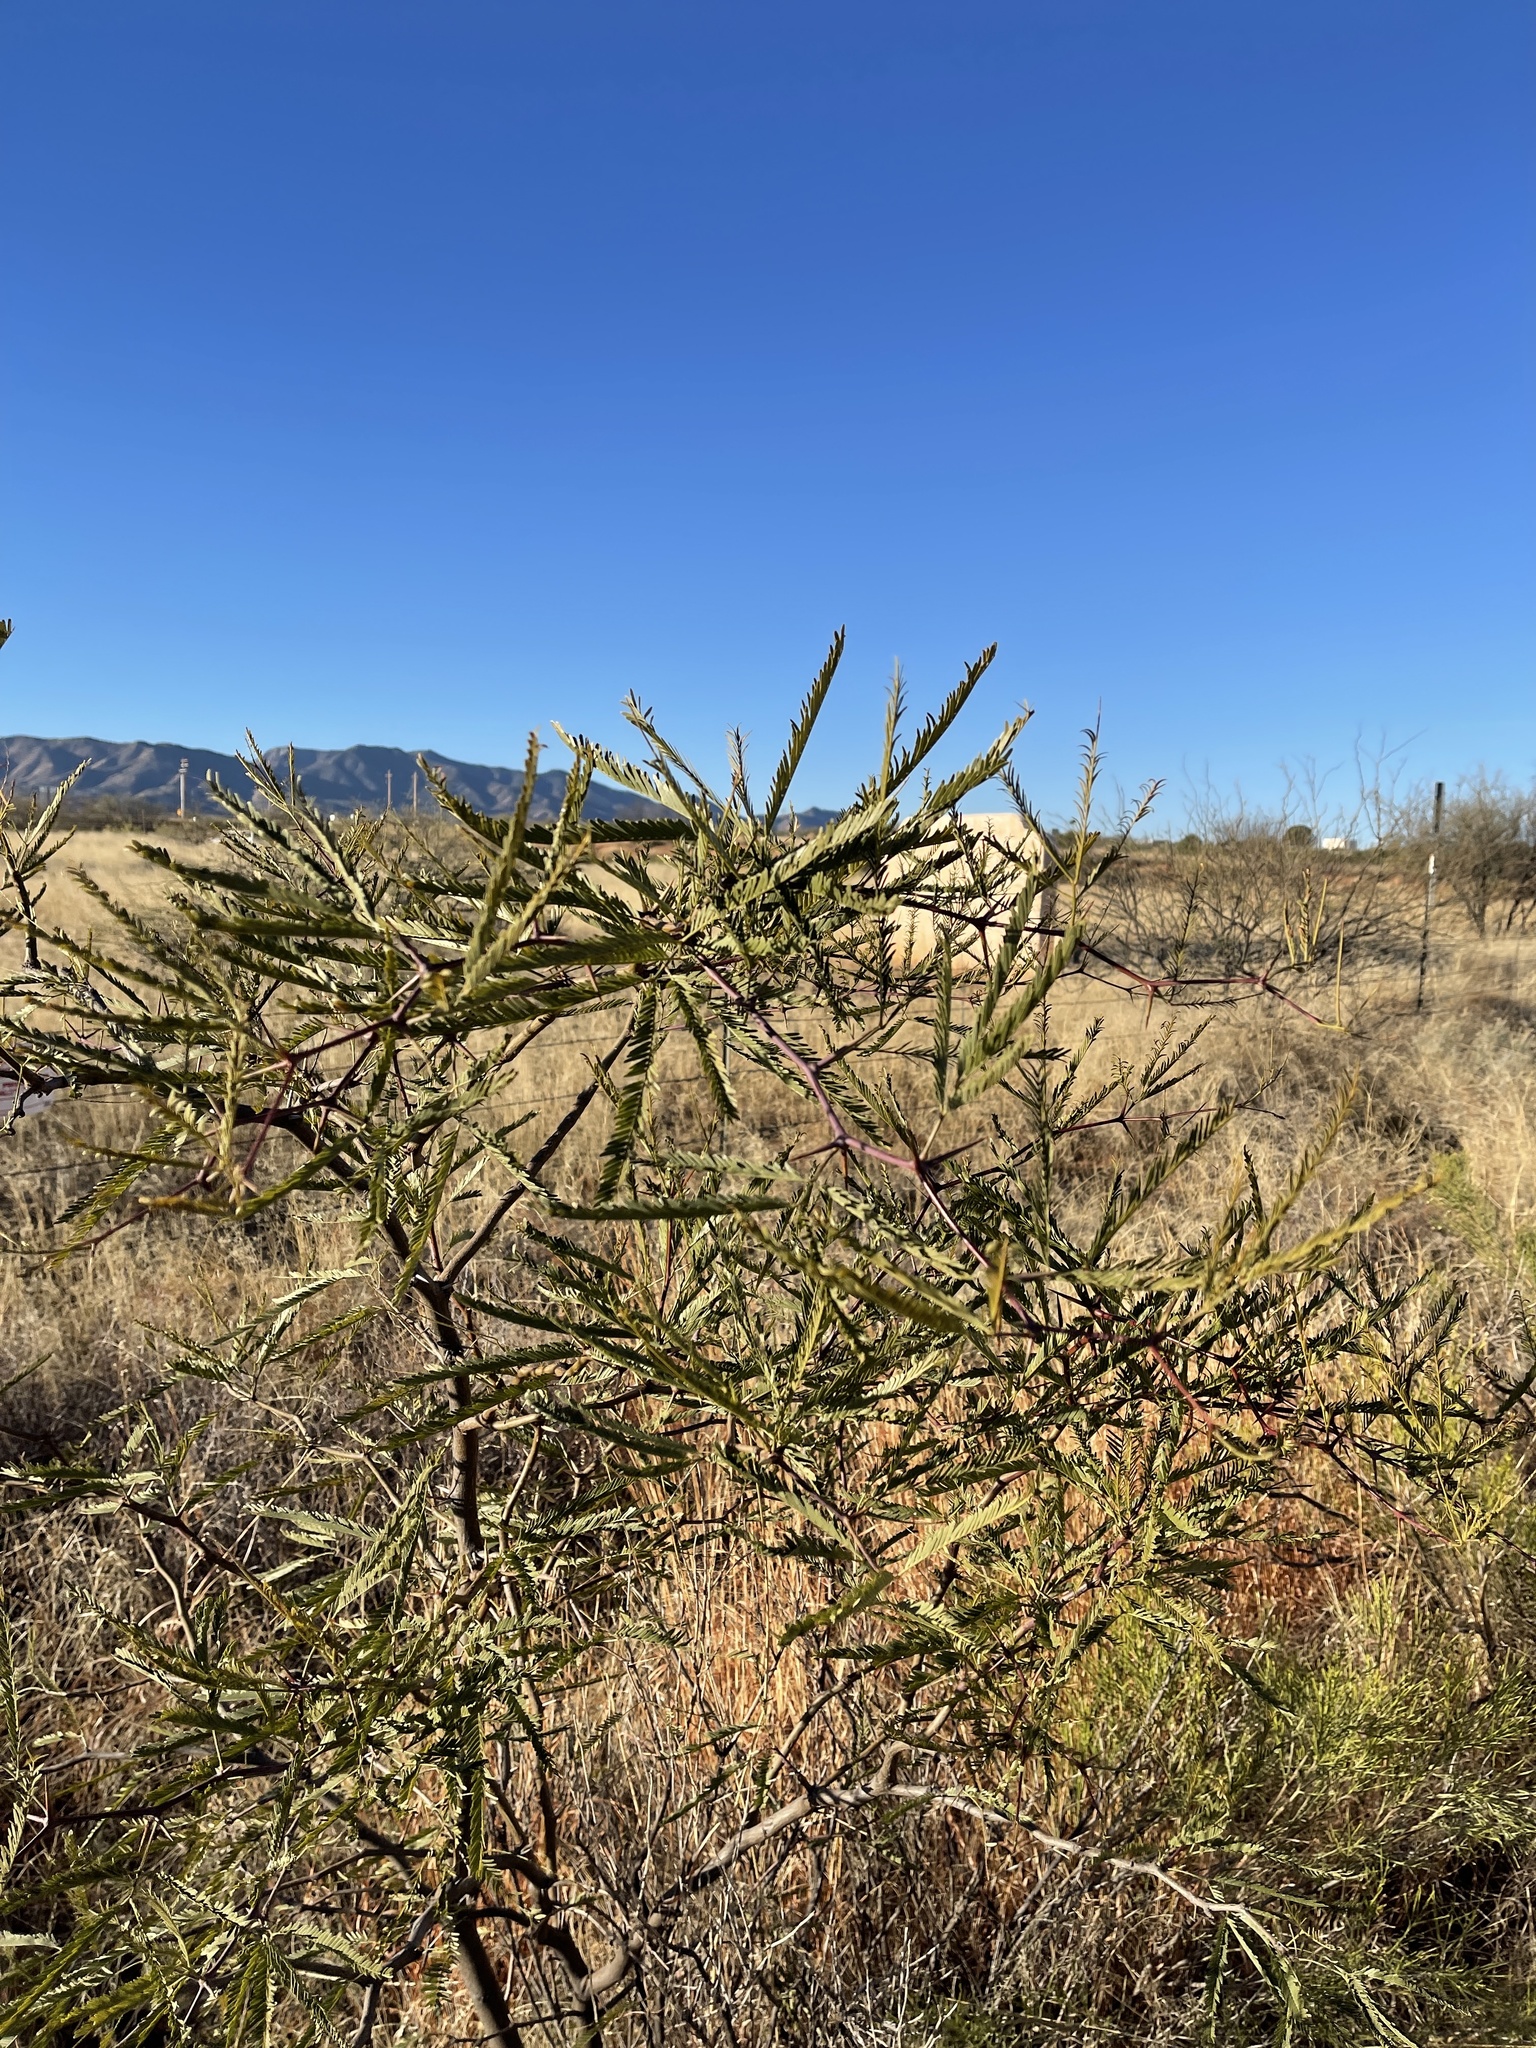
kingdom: Plantae
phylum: Tracheophyta
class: Magnoliopsida
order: Fabales
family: Fabaceae
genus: Prosopis
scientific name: Prosopis velutina
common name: Velvet mesquite
